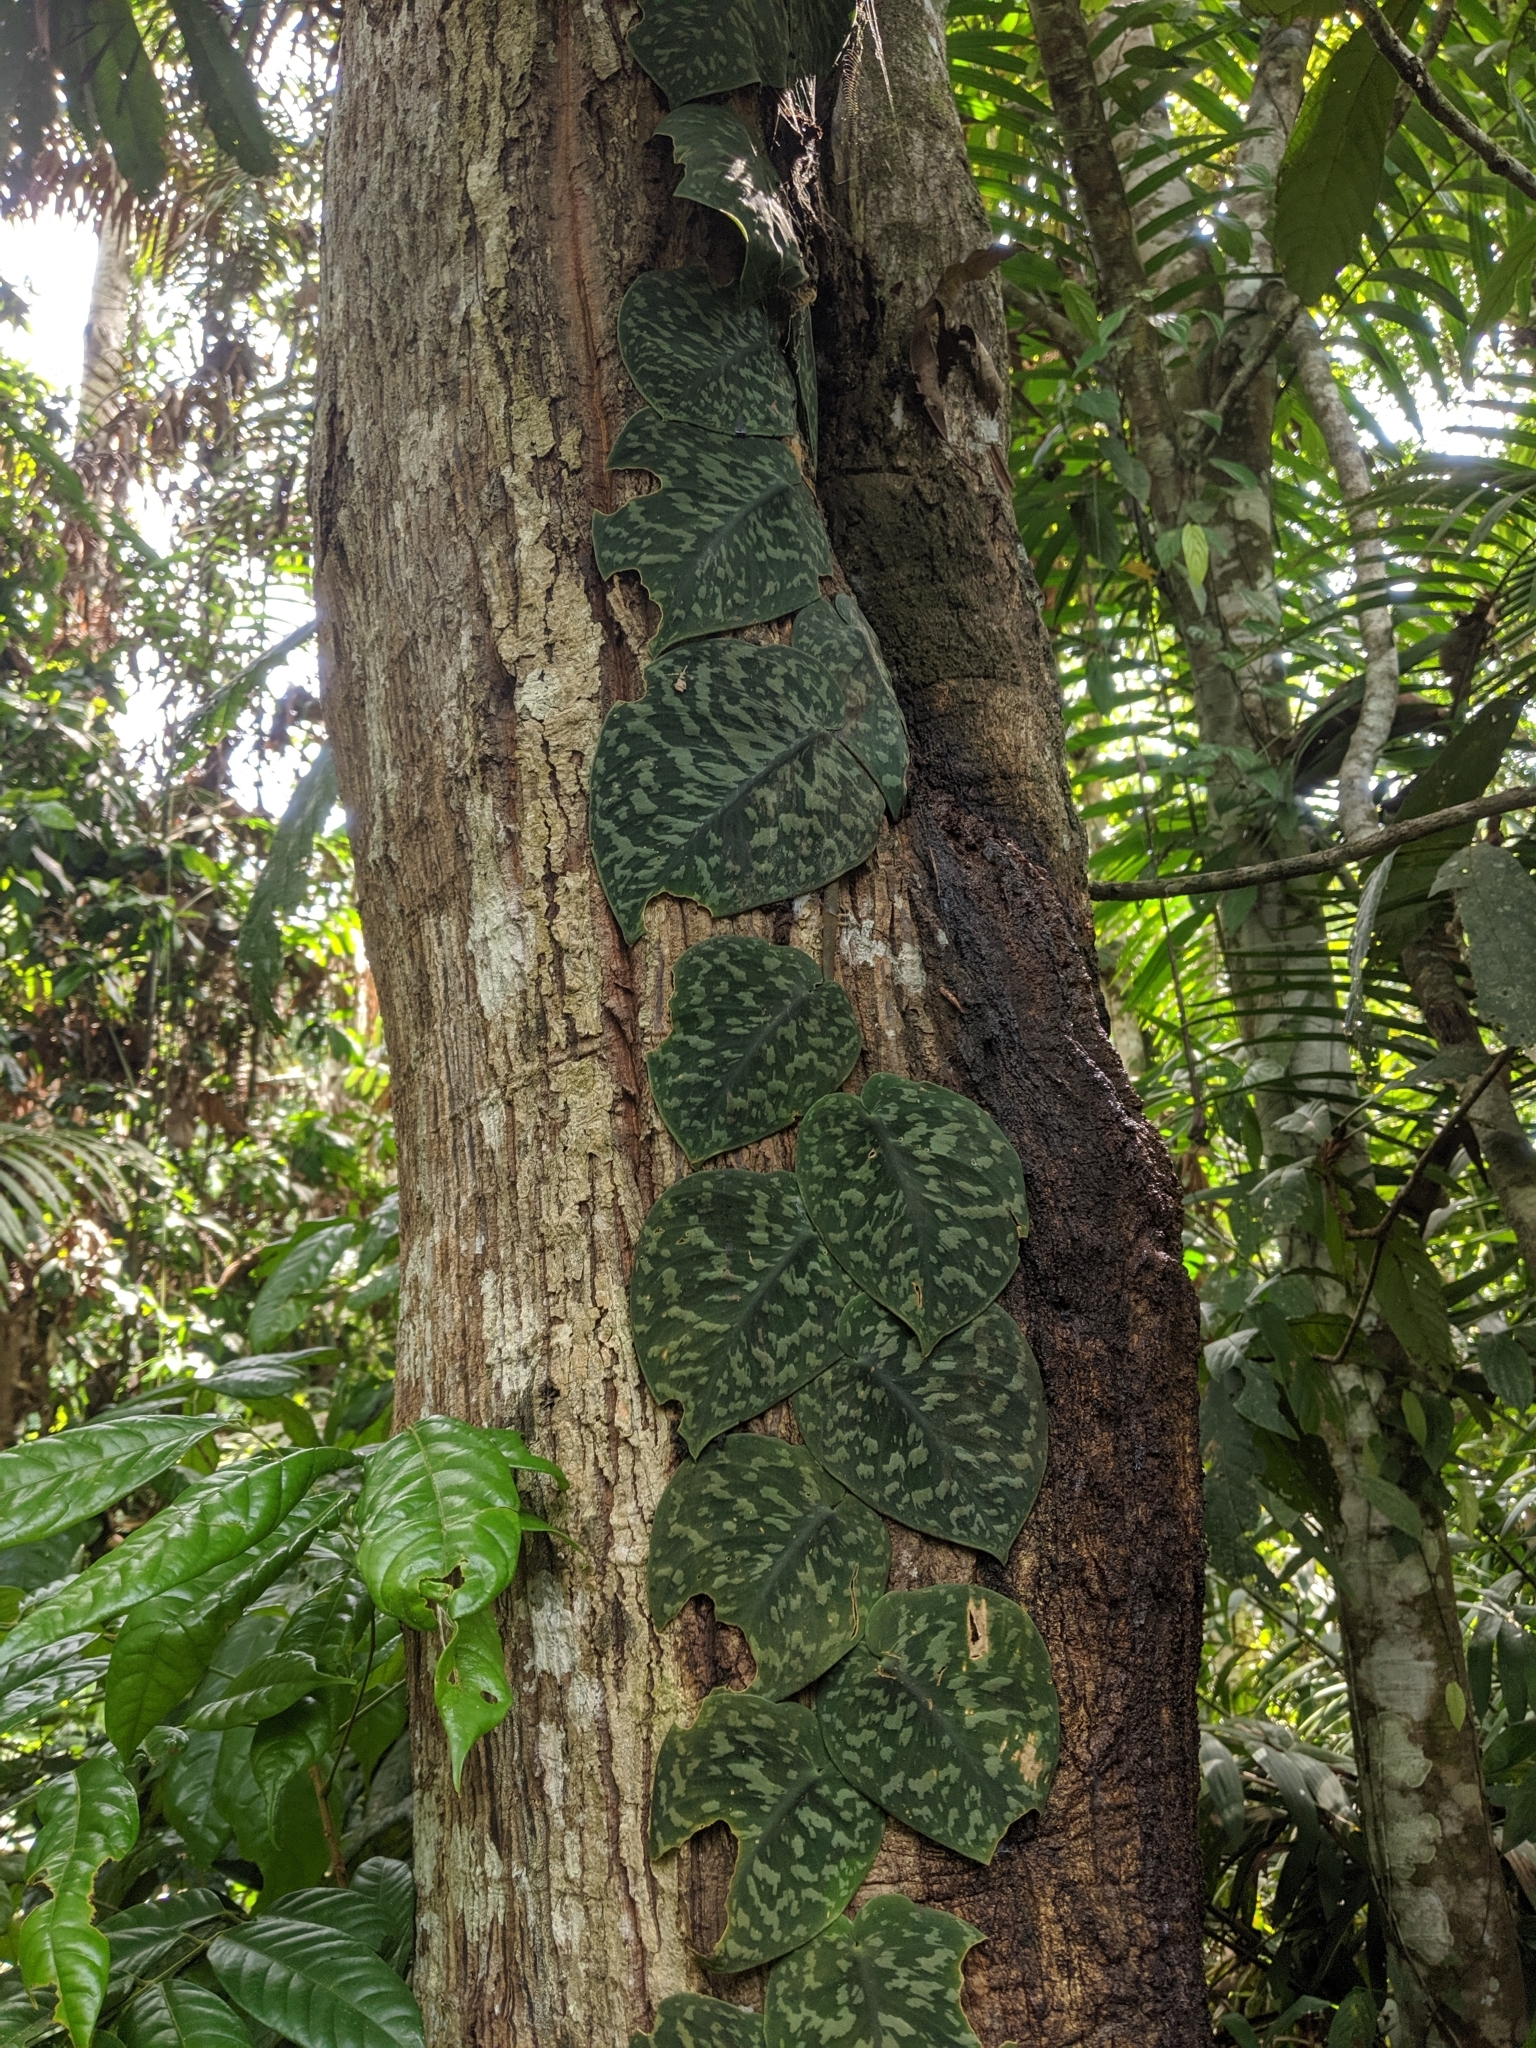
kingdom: Plantae
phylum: Tracheophyta
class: Liliopsida
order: Alismatales
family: Araceae
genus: Scindapsus
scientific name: Scindapsus pictus
